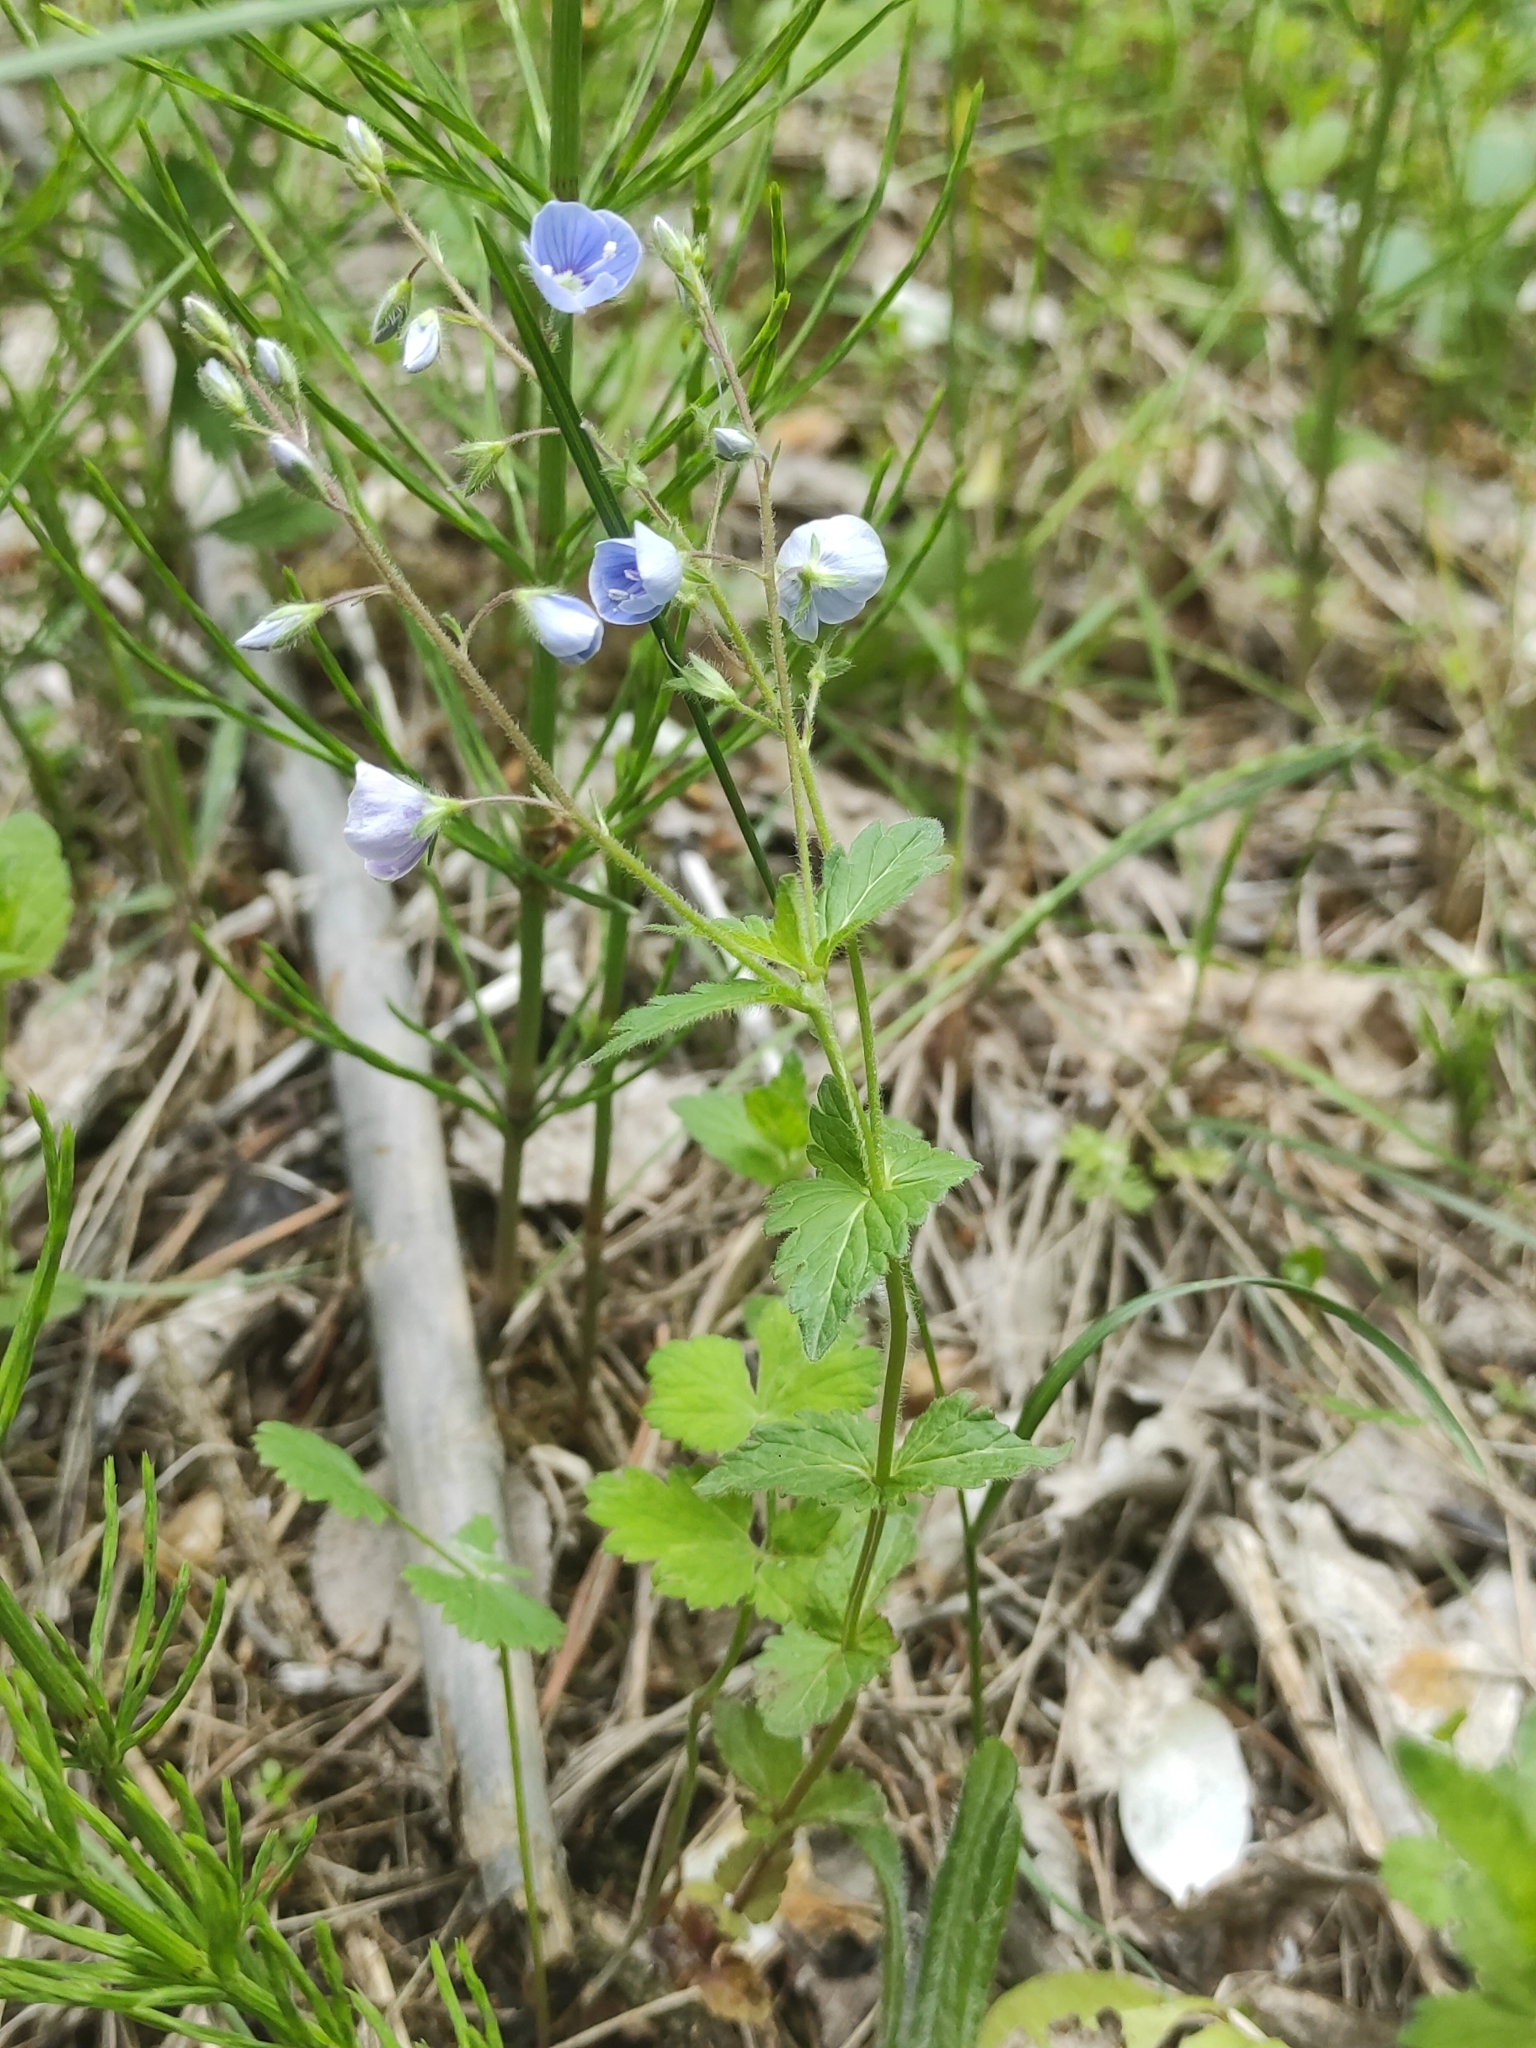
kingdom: Plantae
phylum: Tracheophyta
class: Magnoliopsida
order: Lamiales
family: Plantaginaceae
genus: Veronica
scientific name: Veronica chamaedrys
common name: Germander speedwell
